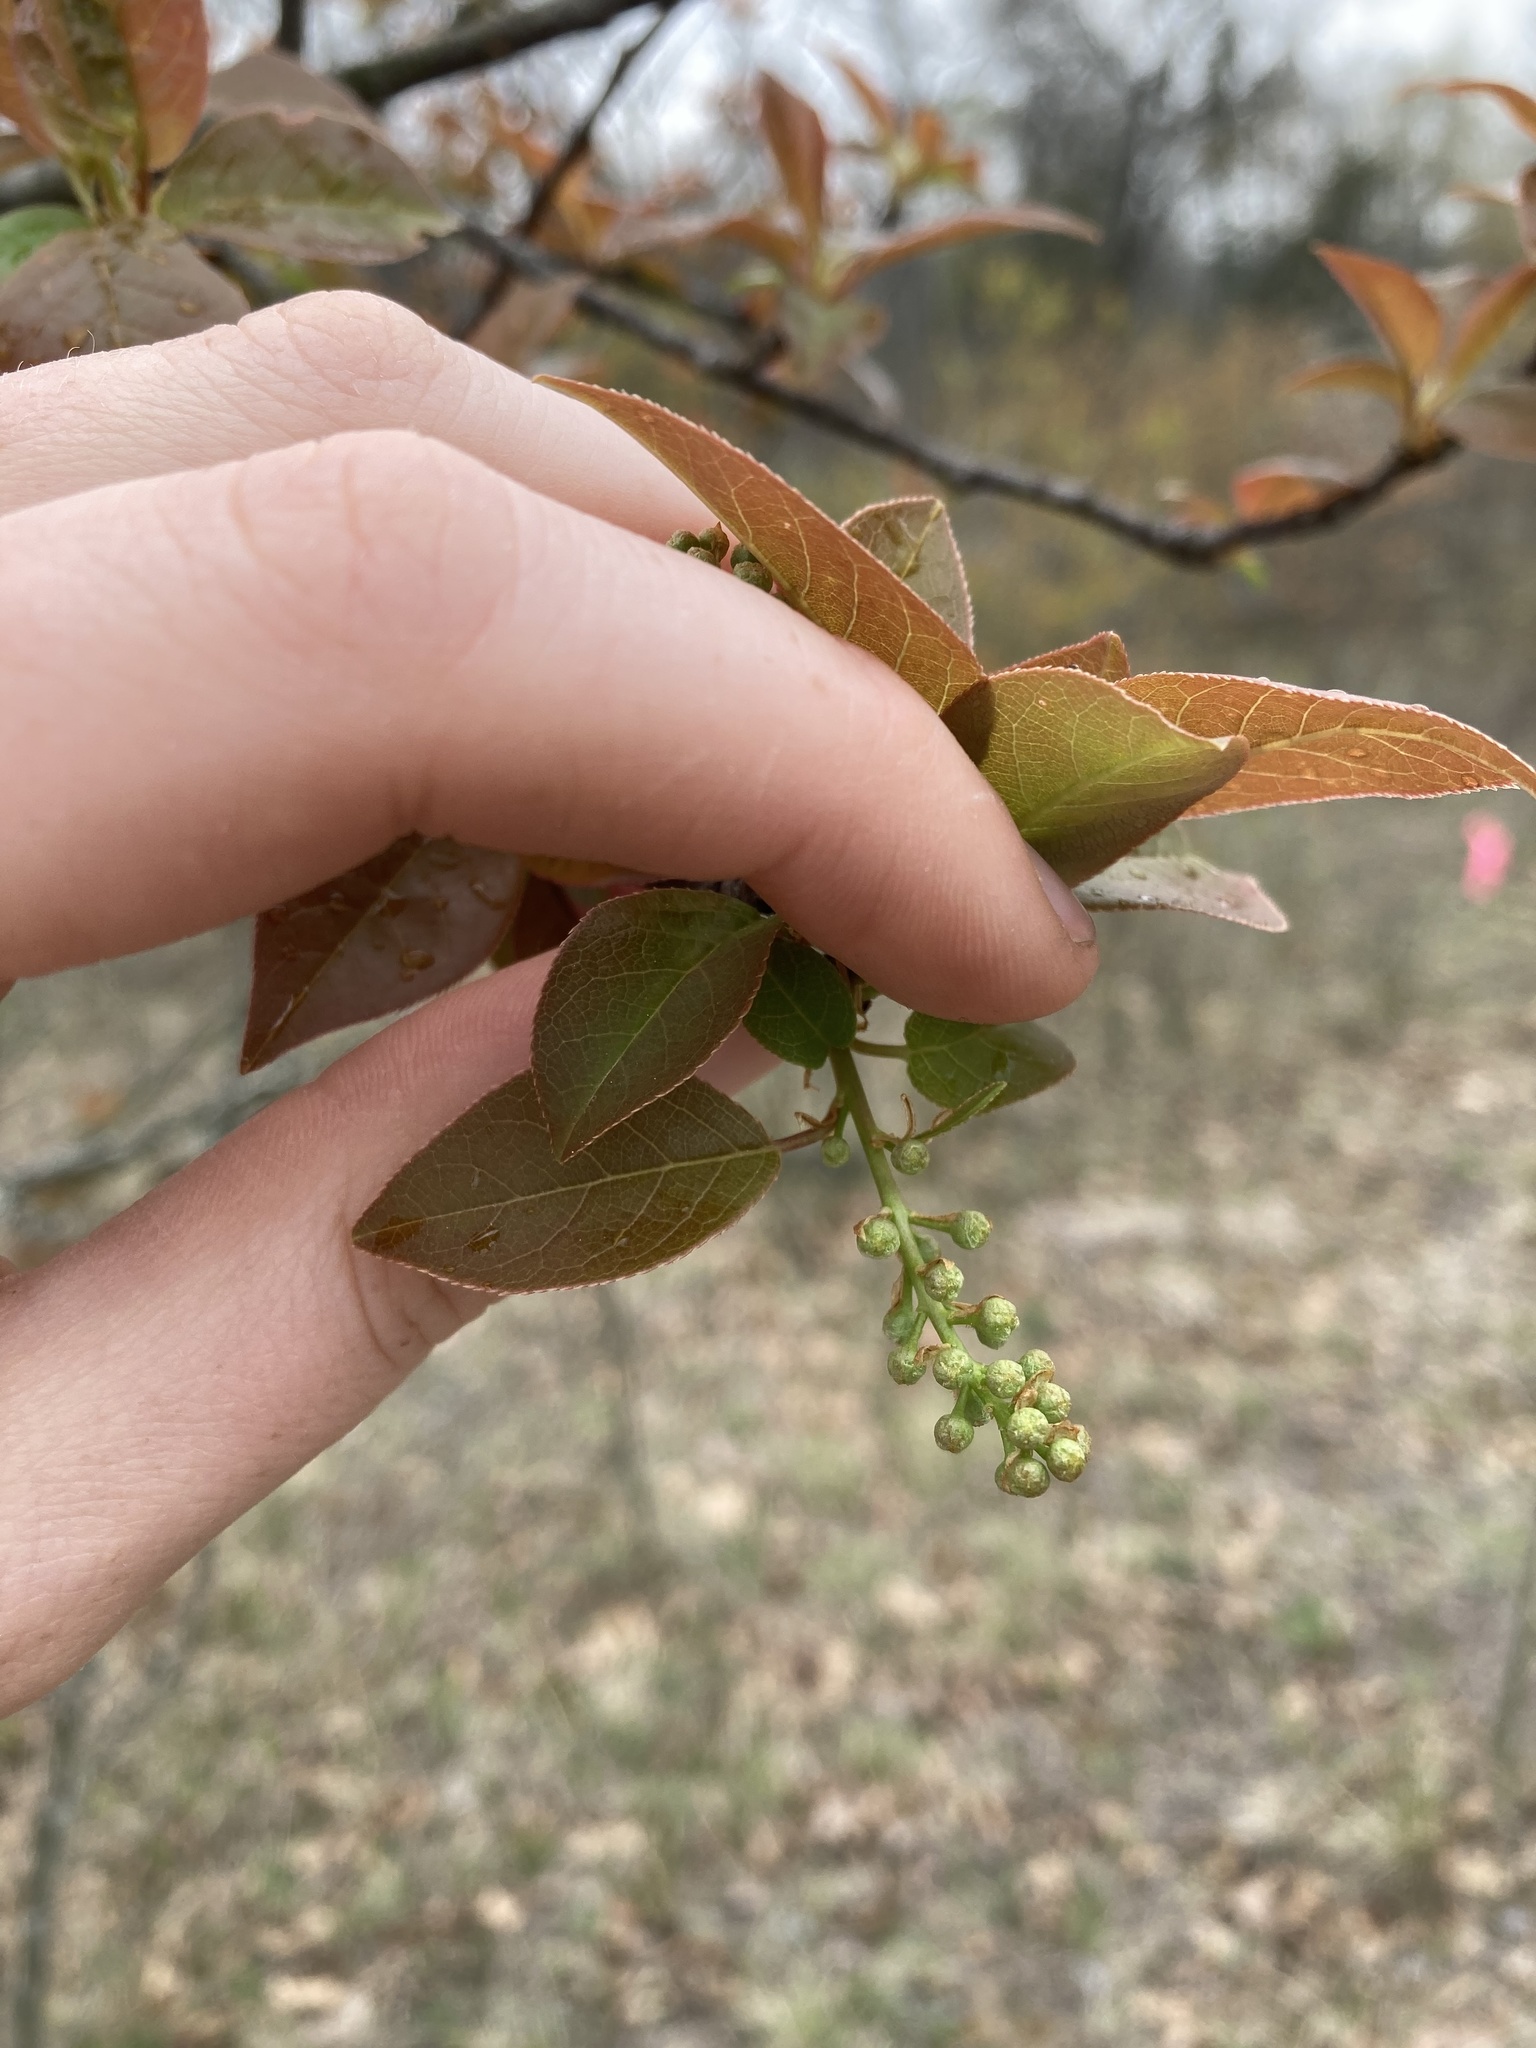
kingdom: Plantae
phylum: Tracheophyta
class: Magnoliopsida
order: Rosales
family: Rosaceae
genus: Prunus
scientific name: Prunus virginiana
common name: Chokecherry
